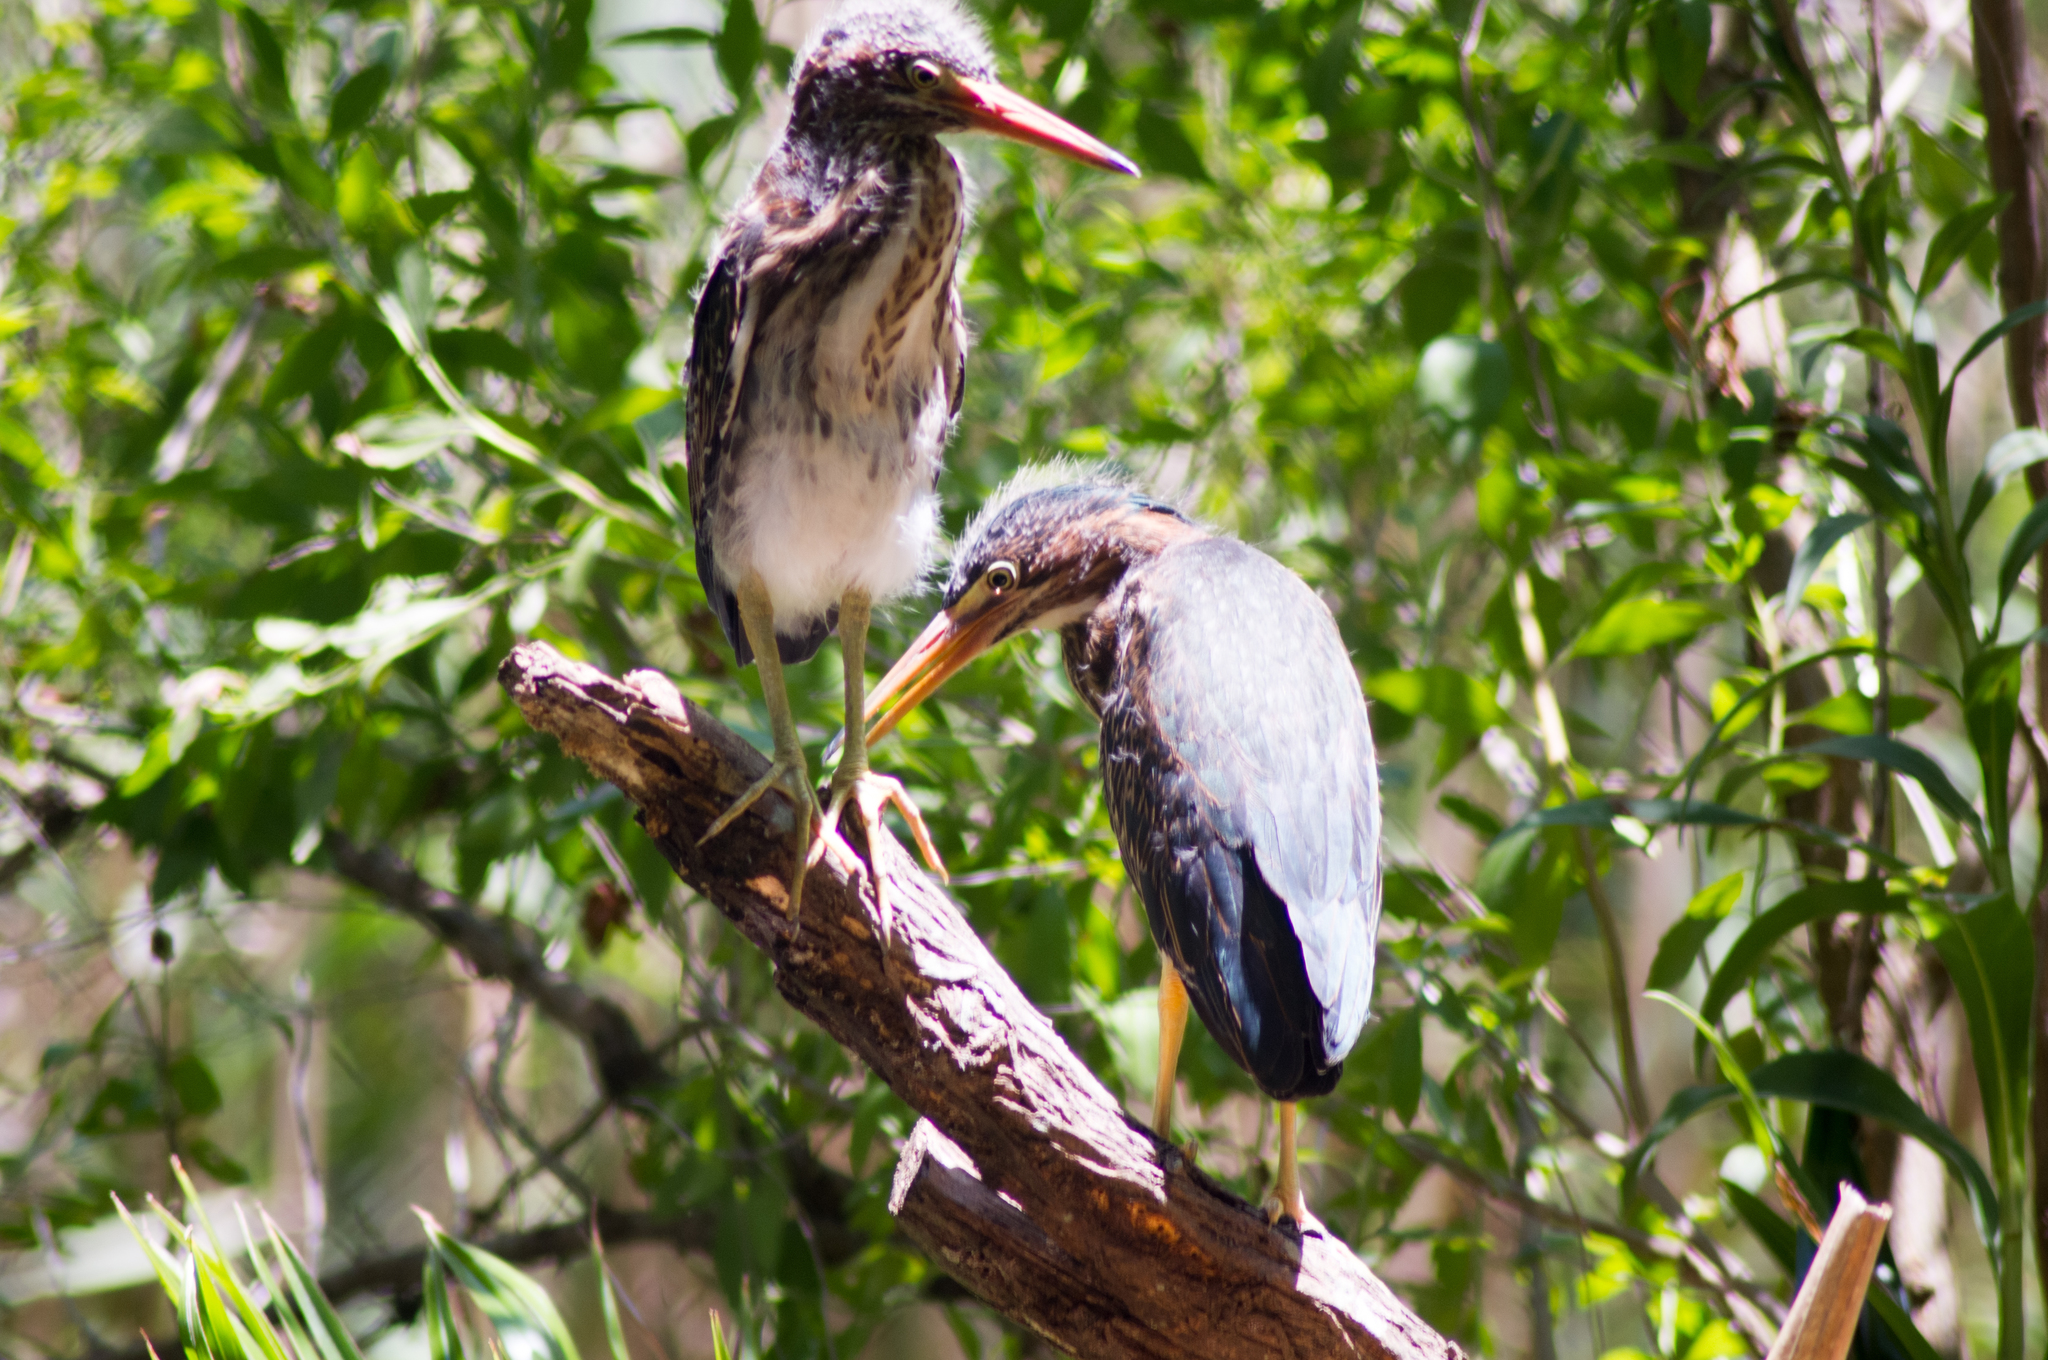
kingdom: Animalia
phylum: Chordata
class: Aves
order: Pelecaniformes
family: Ardeidae
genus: Butorides
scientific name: Butorides virescens
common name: Green heron
